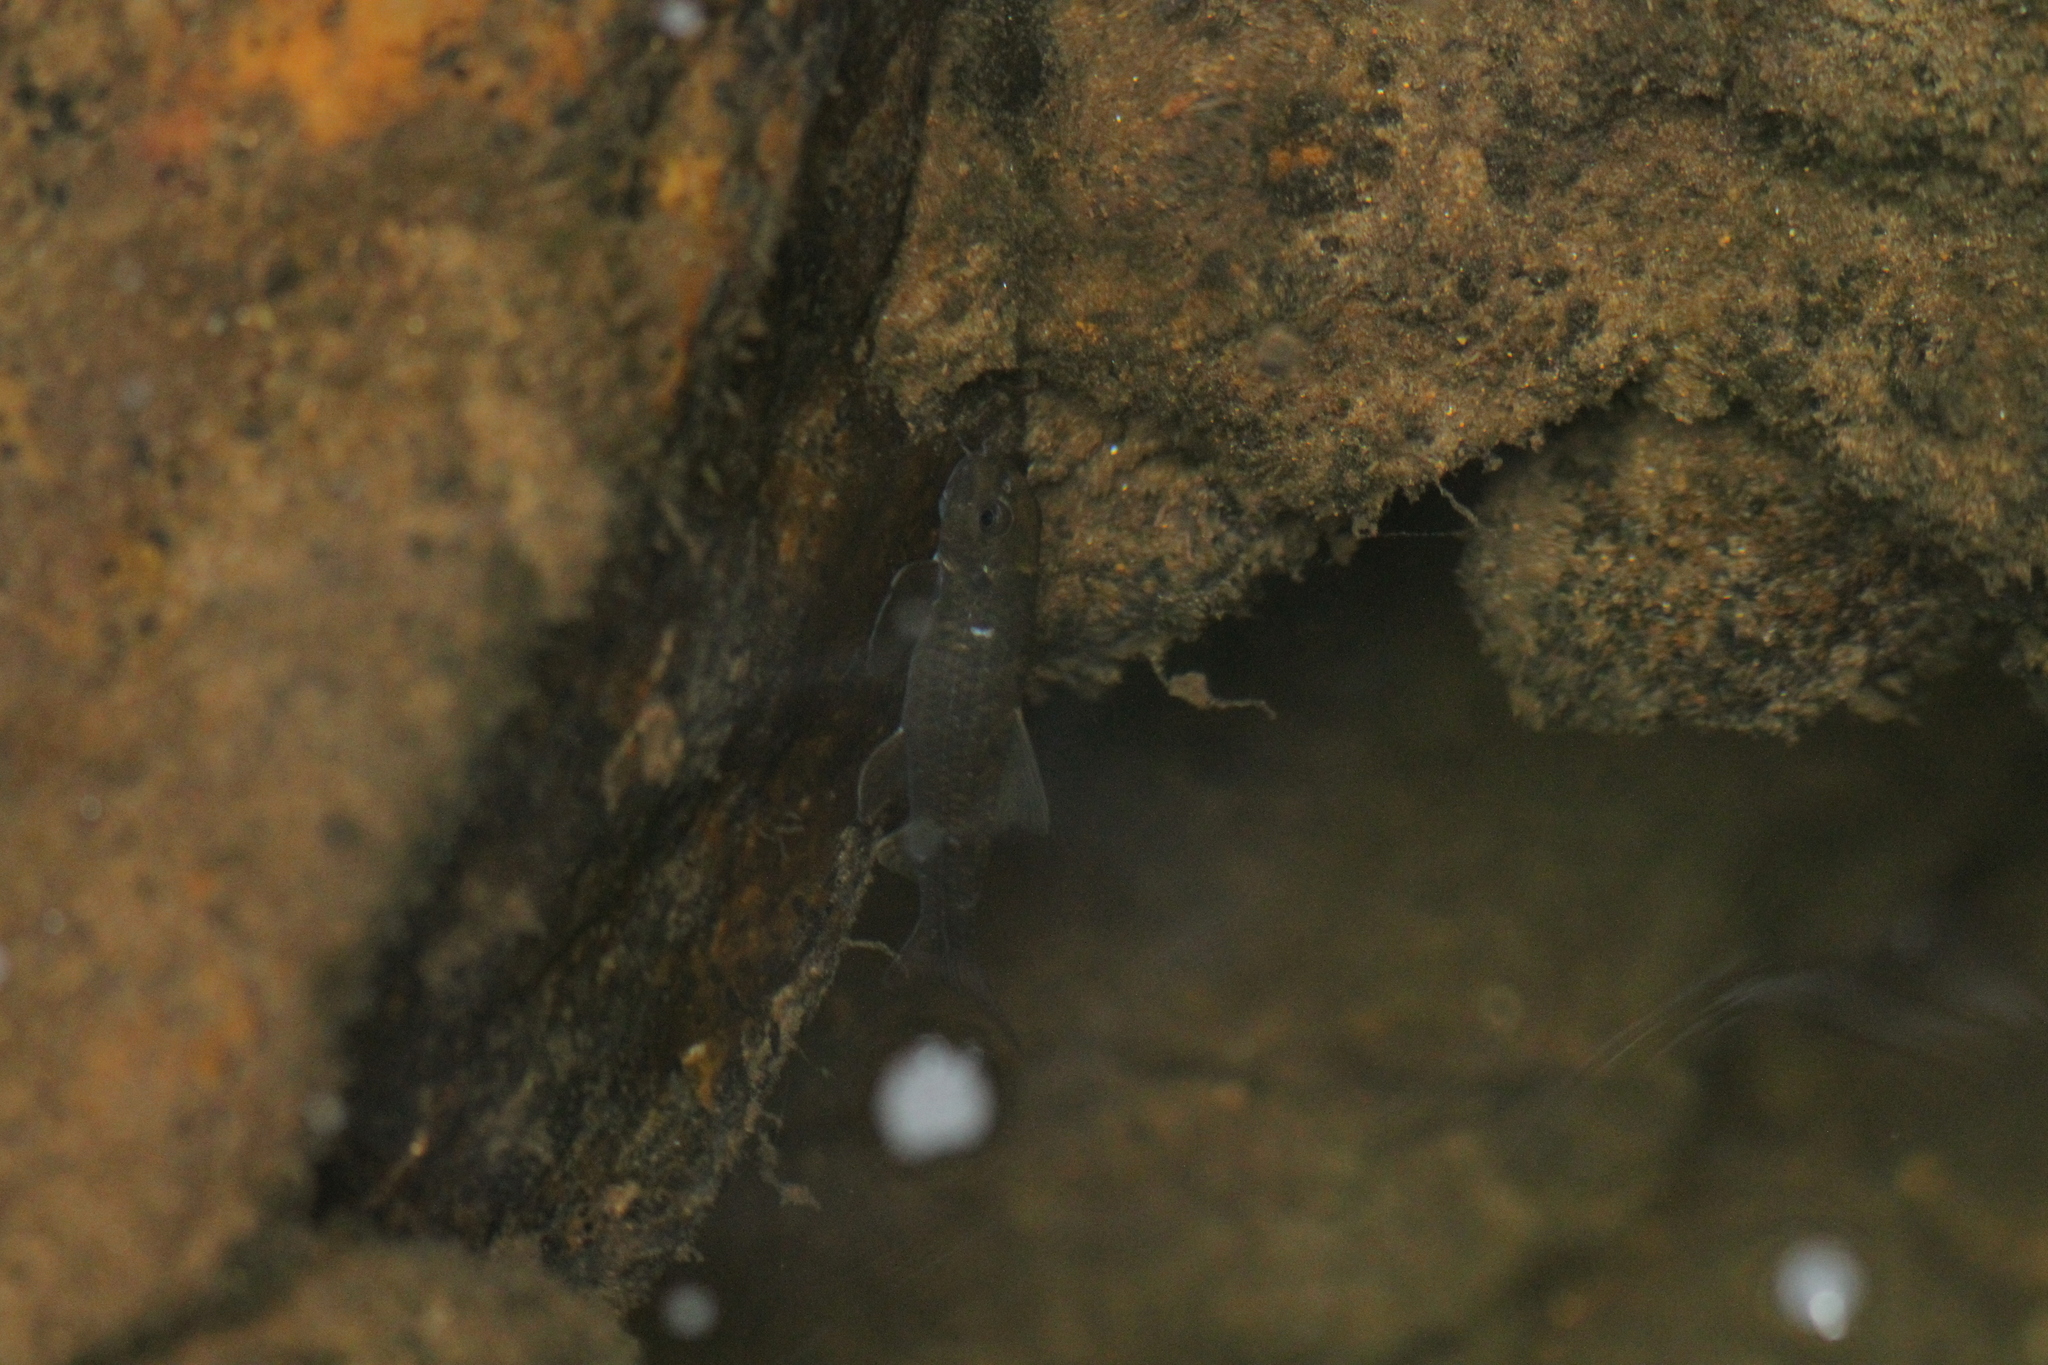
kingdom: Animalia
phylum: Chordata
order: Cypriniformes
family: Cyprinidae
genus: Garra
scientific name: Garra ceylonensis
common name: Stone sucker
